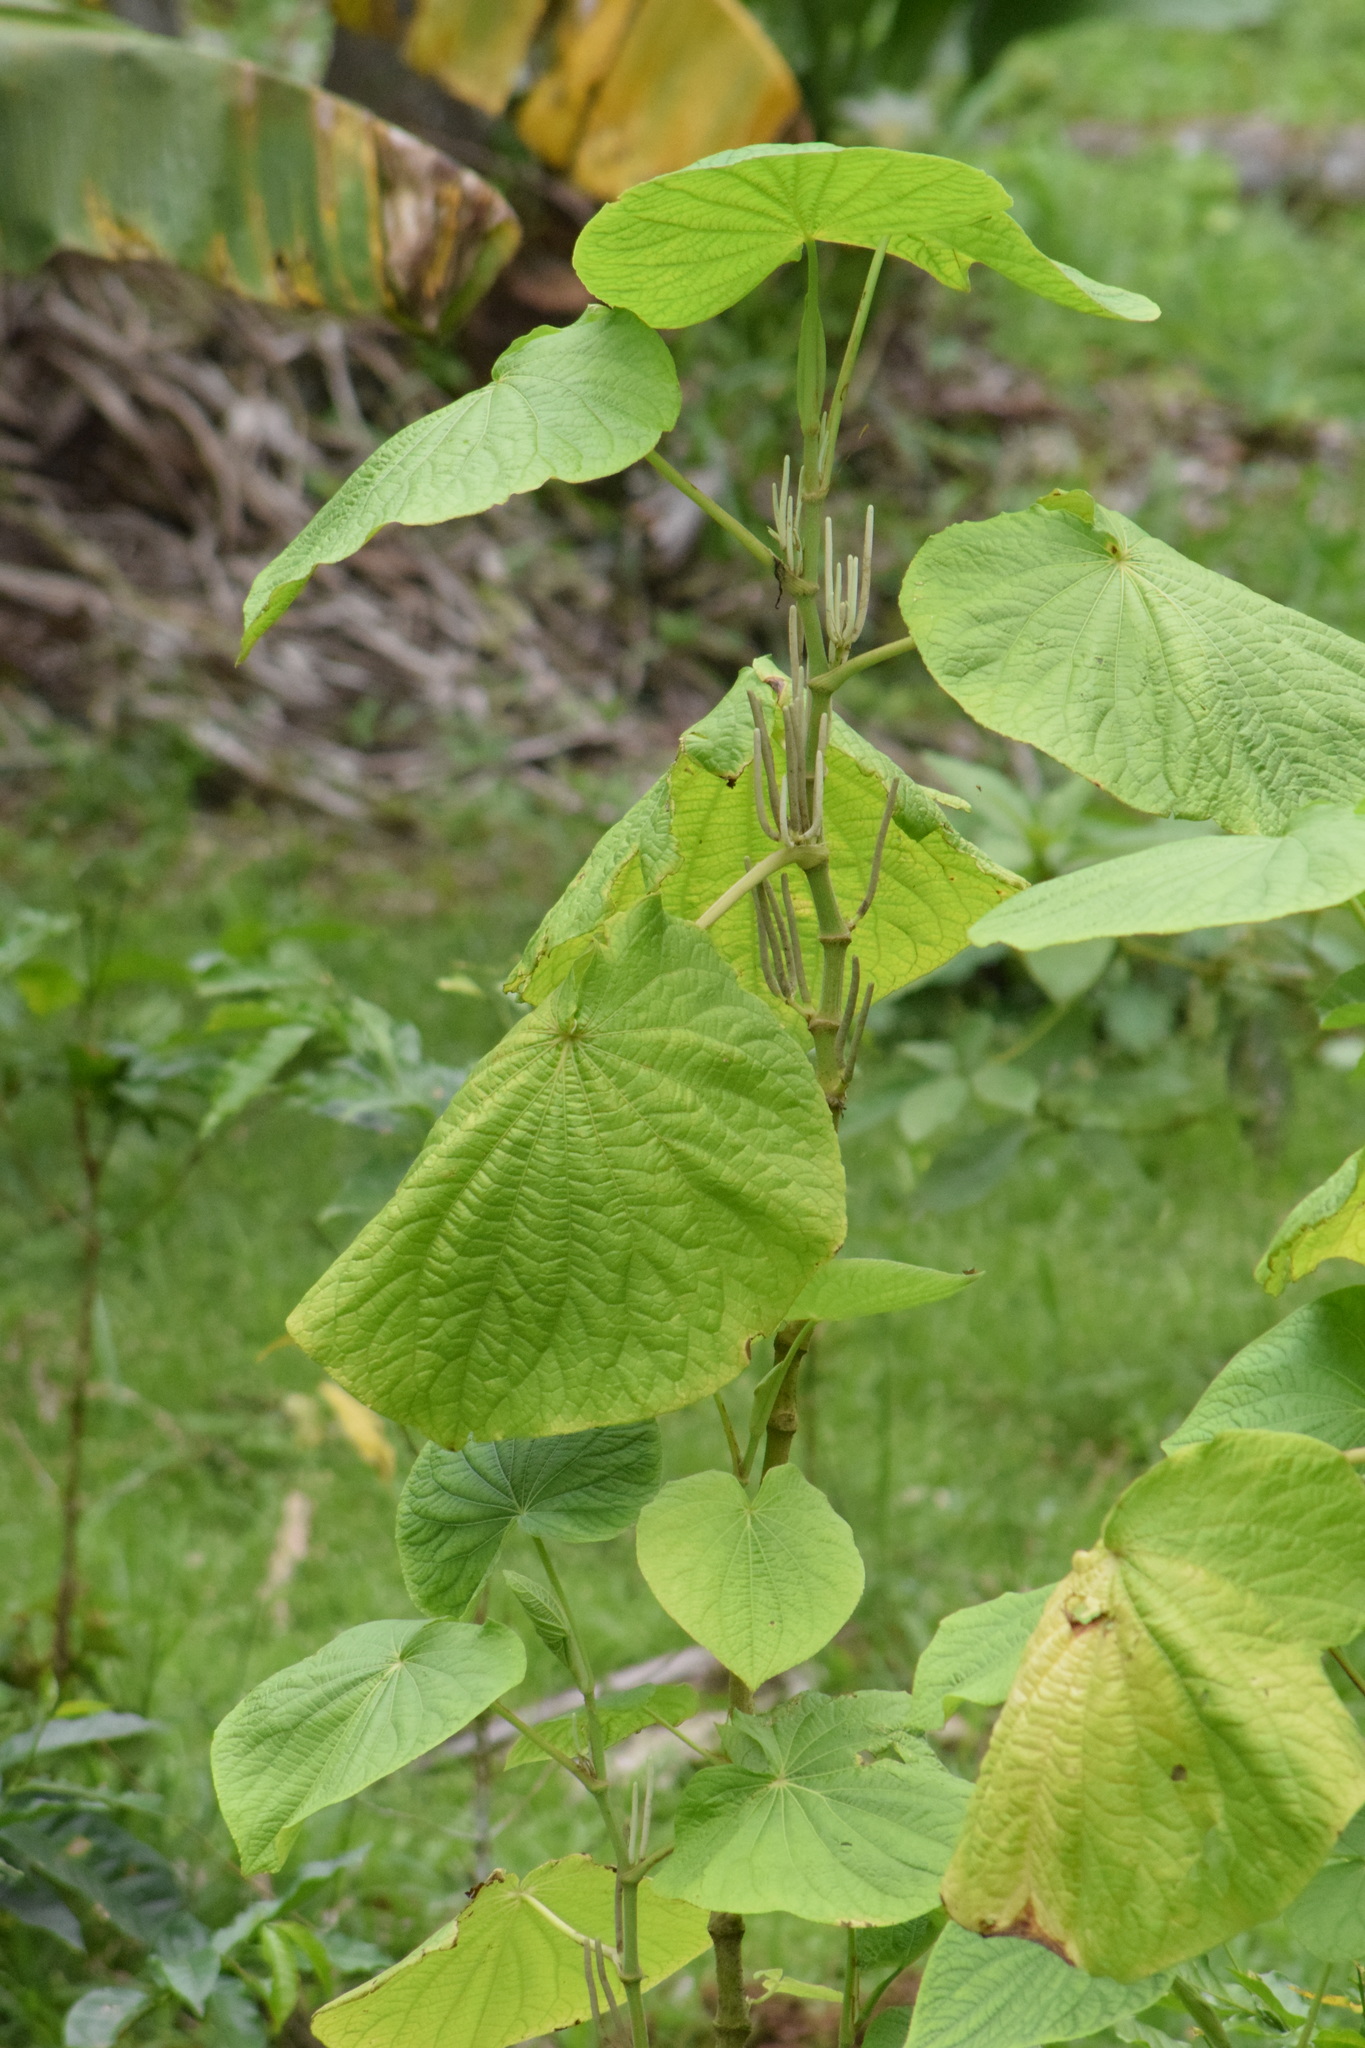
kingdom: Plantae
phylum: Tracheophyta
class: Magnoliopsida
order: Piperales
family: Piperaceae
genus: Piper
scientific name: Piper umbellatum
